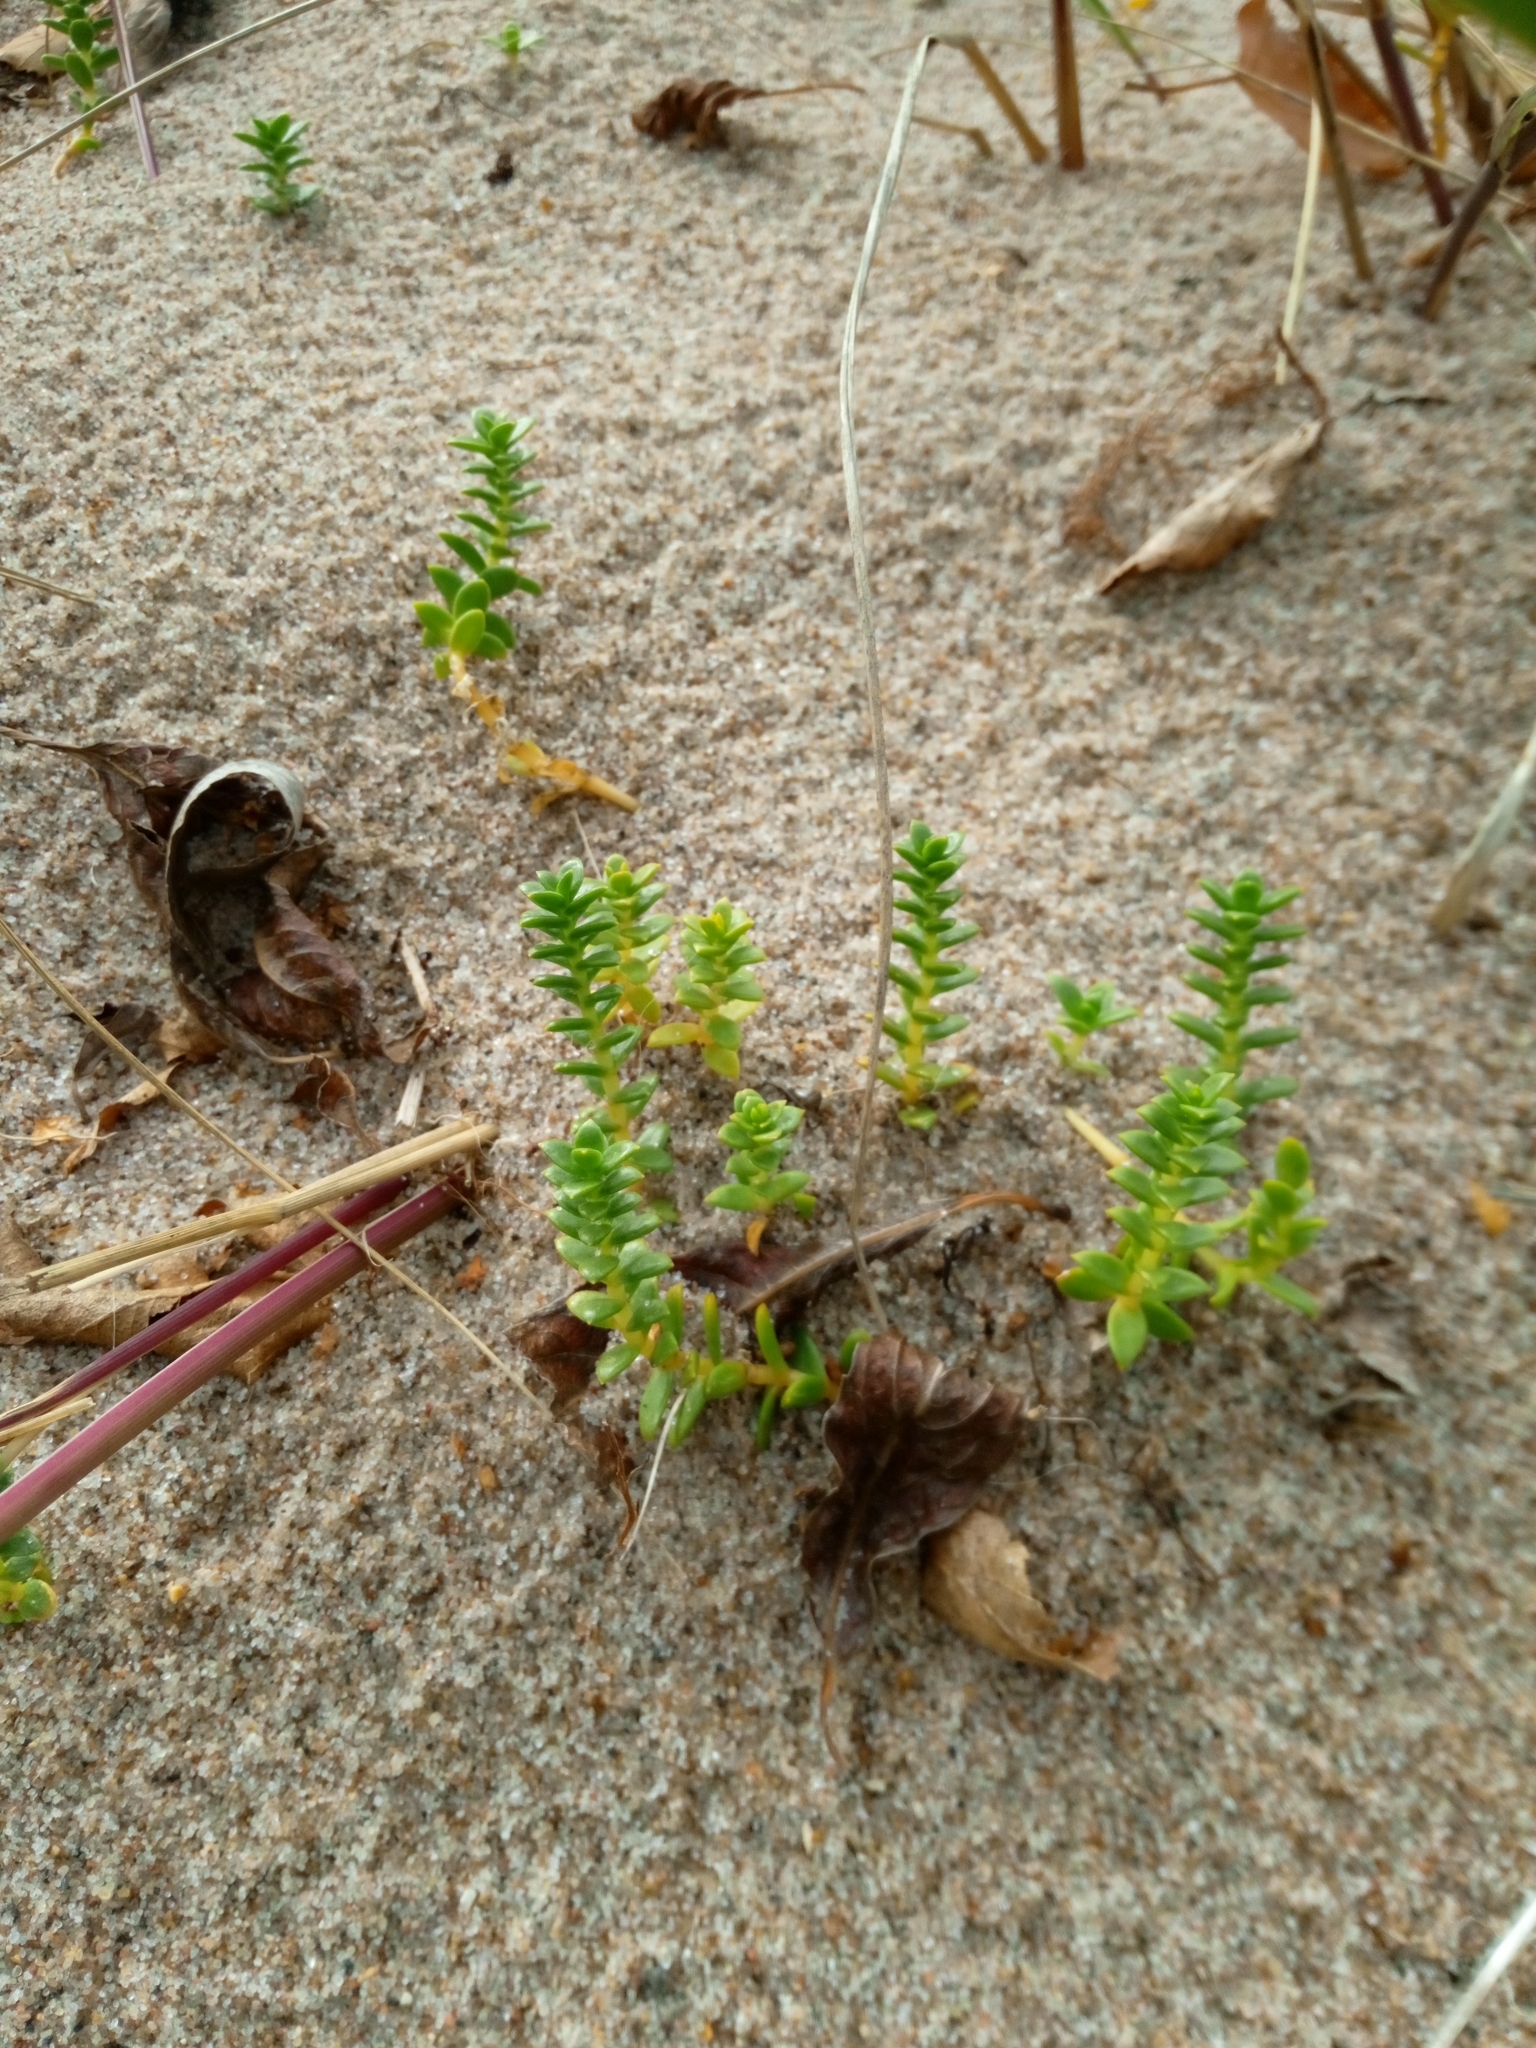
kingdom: Plantae
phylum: Tracheophyta
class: Magnoliopsida
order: Caryophyllales
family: Caryophyllaceae
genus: Honckenya
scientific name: Honckenya peploides
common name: Sea sandwort
